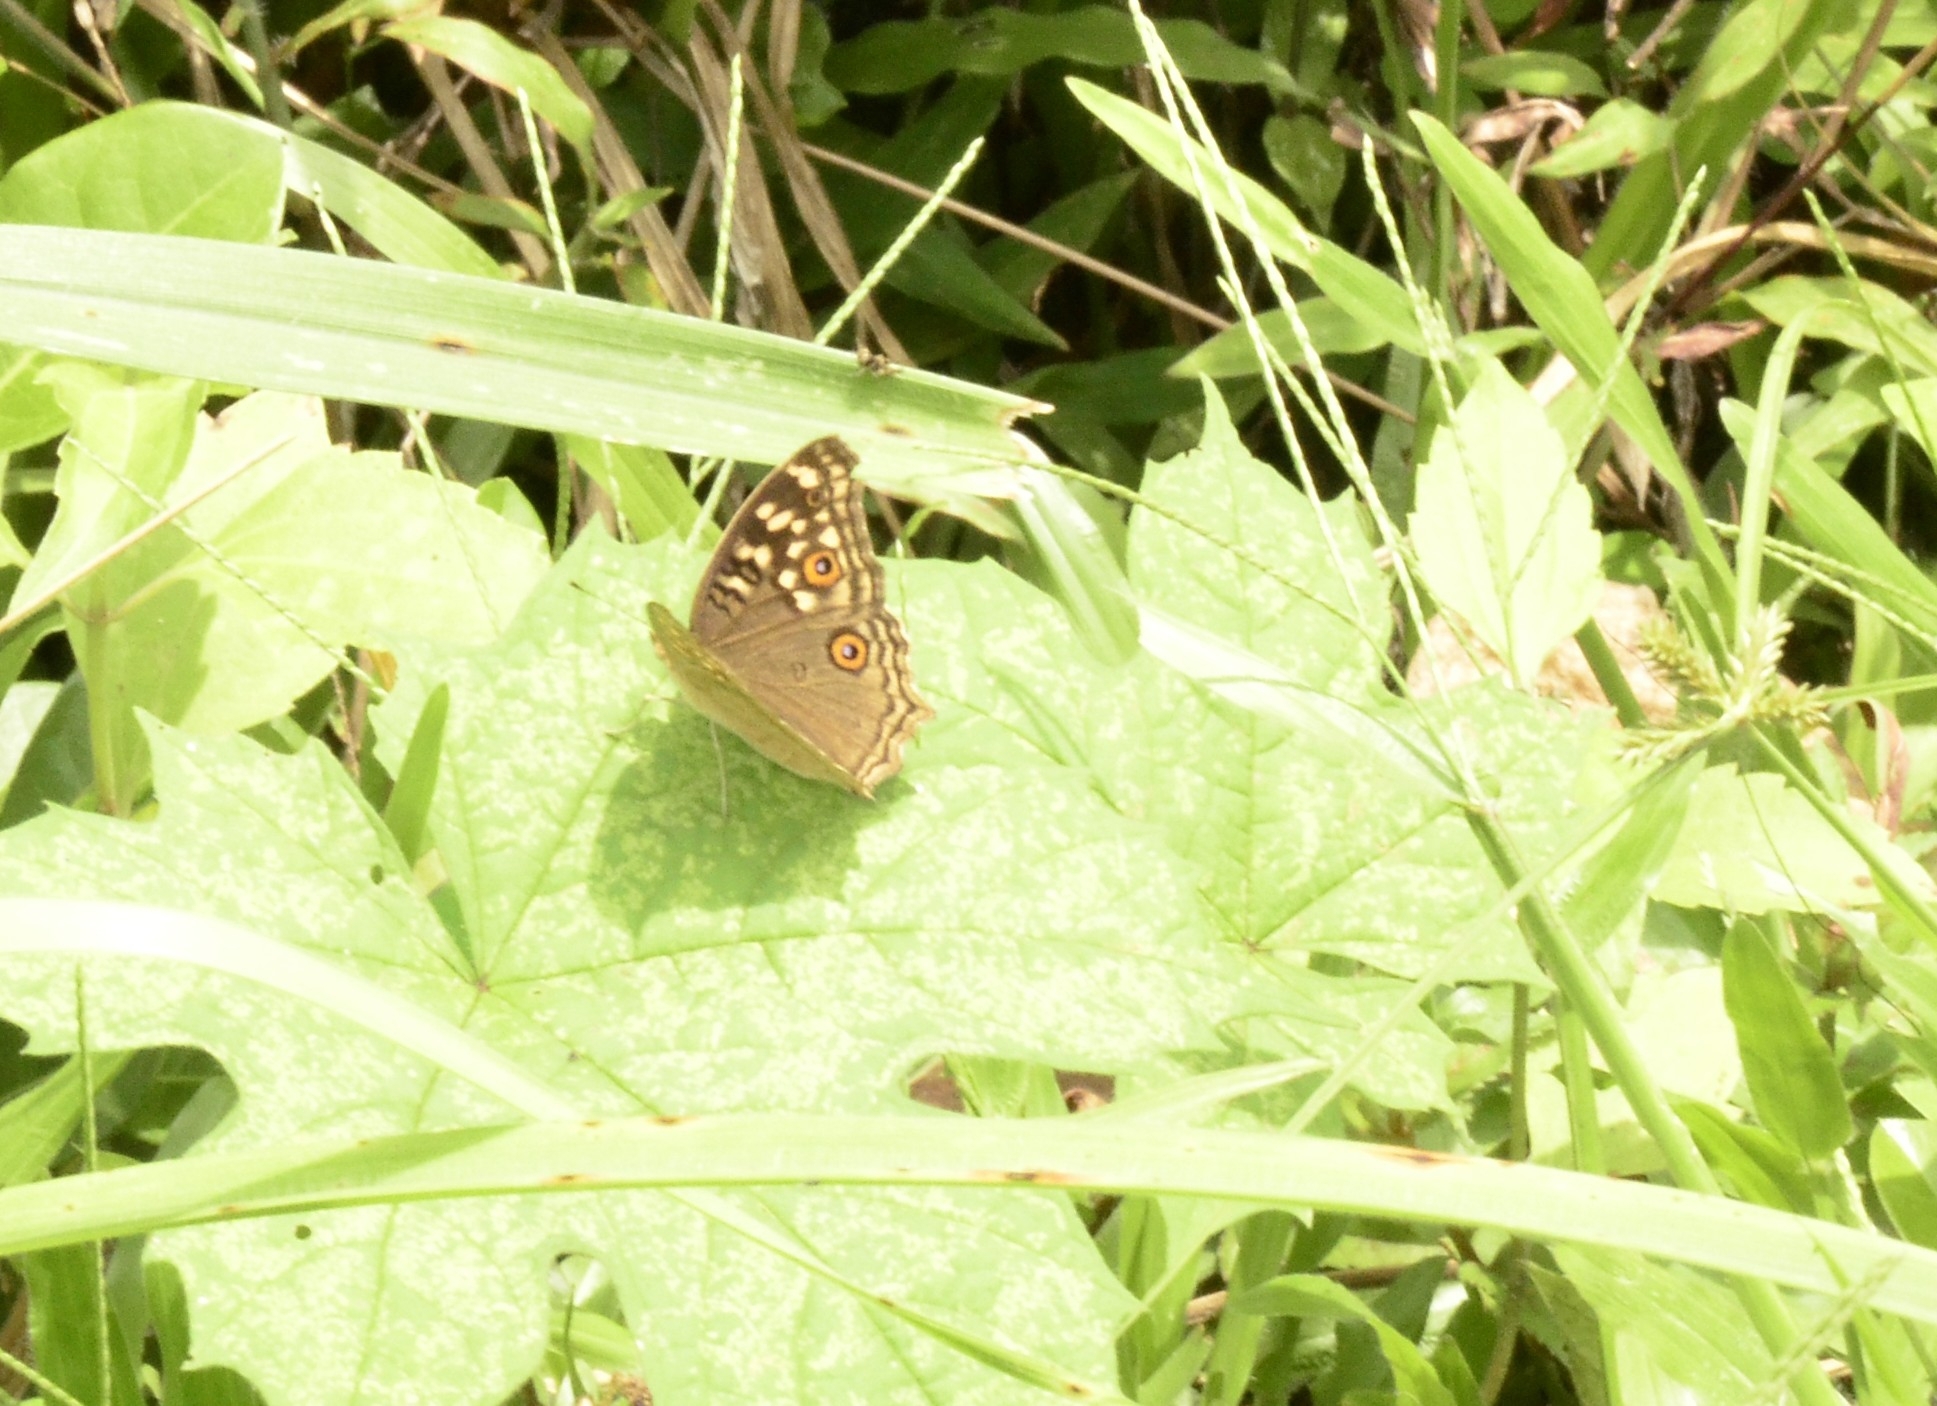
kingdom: Animalia
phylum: Arthropoda
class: Insecta
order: Lepidoptera
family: Nymphalidae
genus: Junonia
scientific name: Junonia lemonias
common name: Lemon pansy
